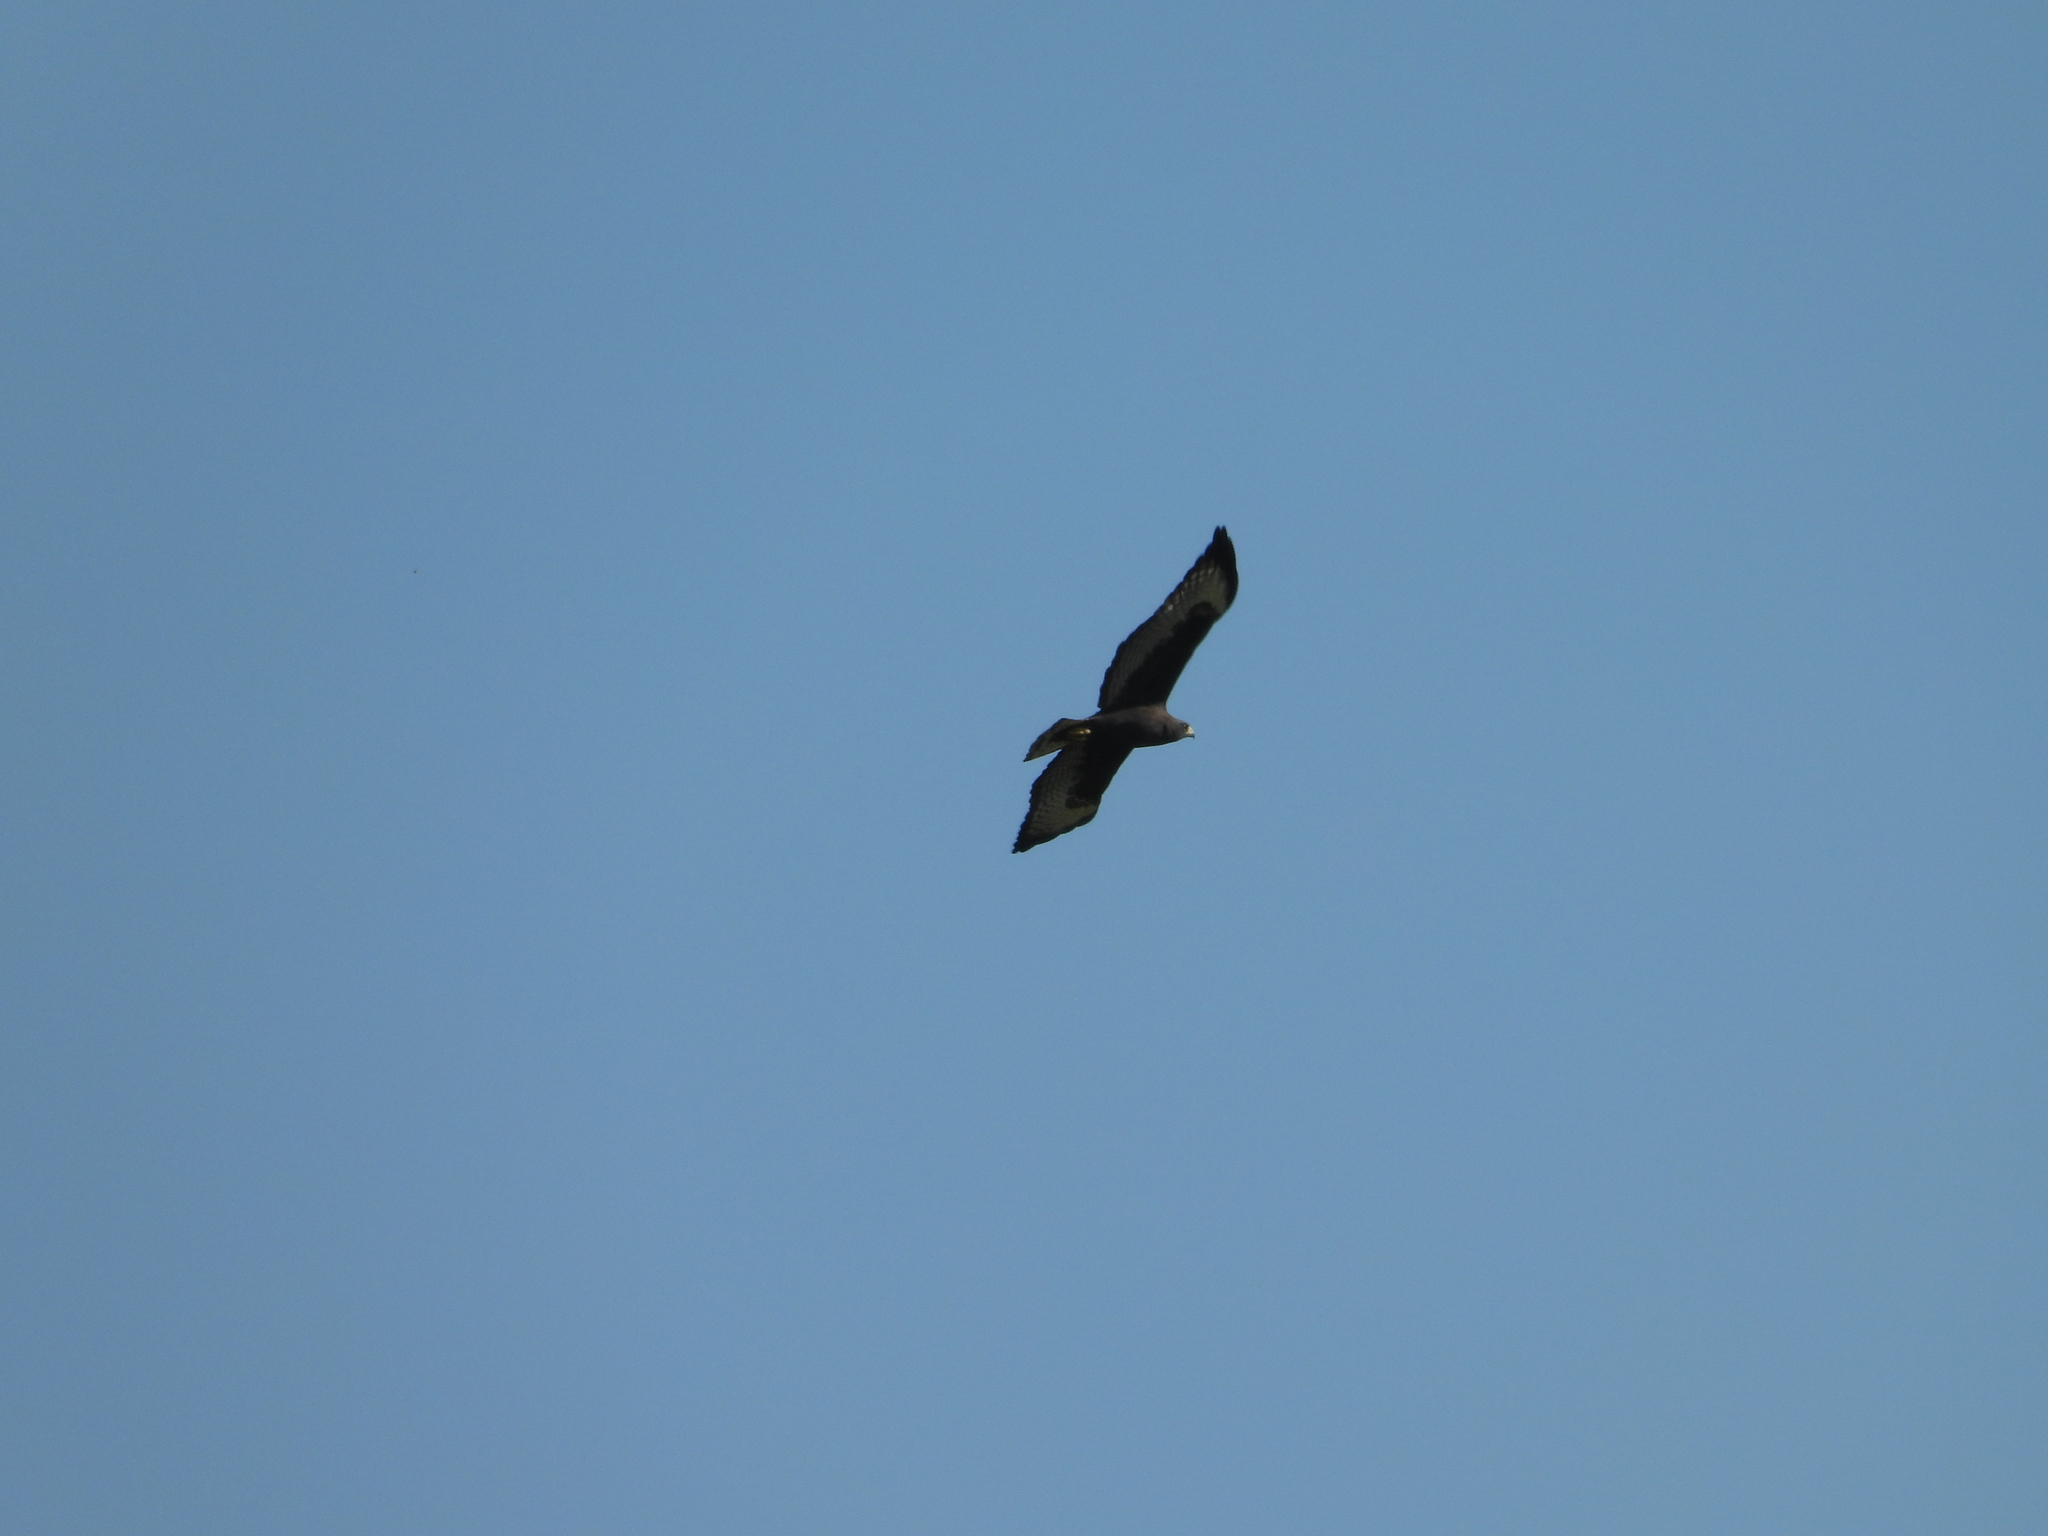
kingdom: Animalia
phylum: Chordata
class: Aves
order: Accipitriformes
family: Accipitridae
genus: Buteo
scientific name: Buteo brachyurus
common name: Short-tailed hawk
